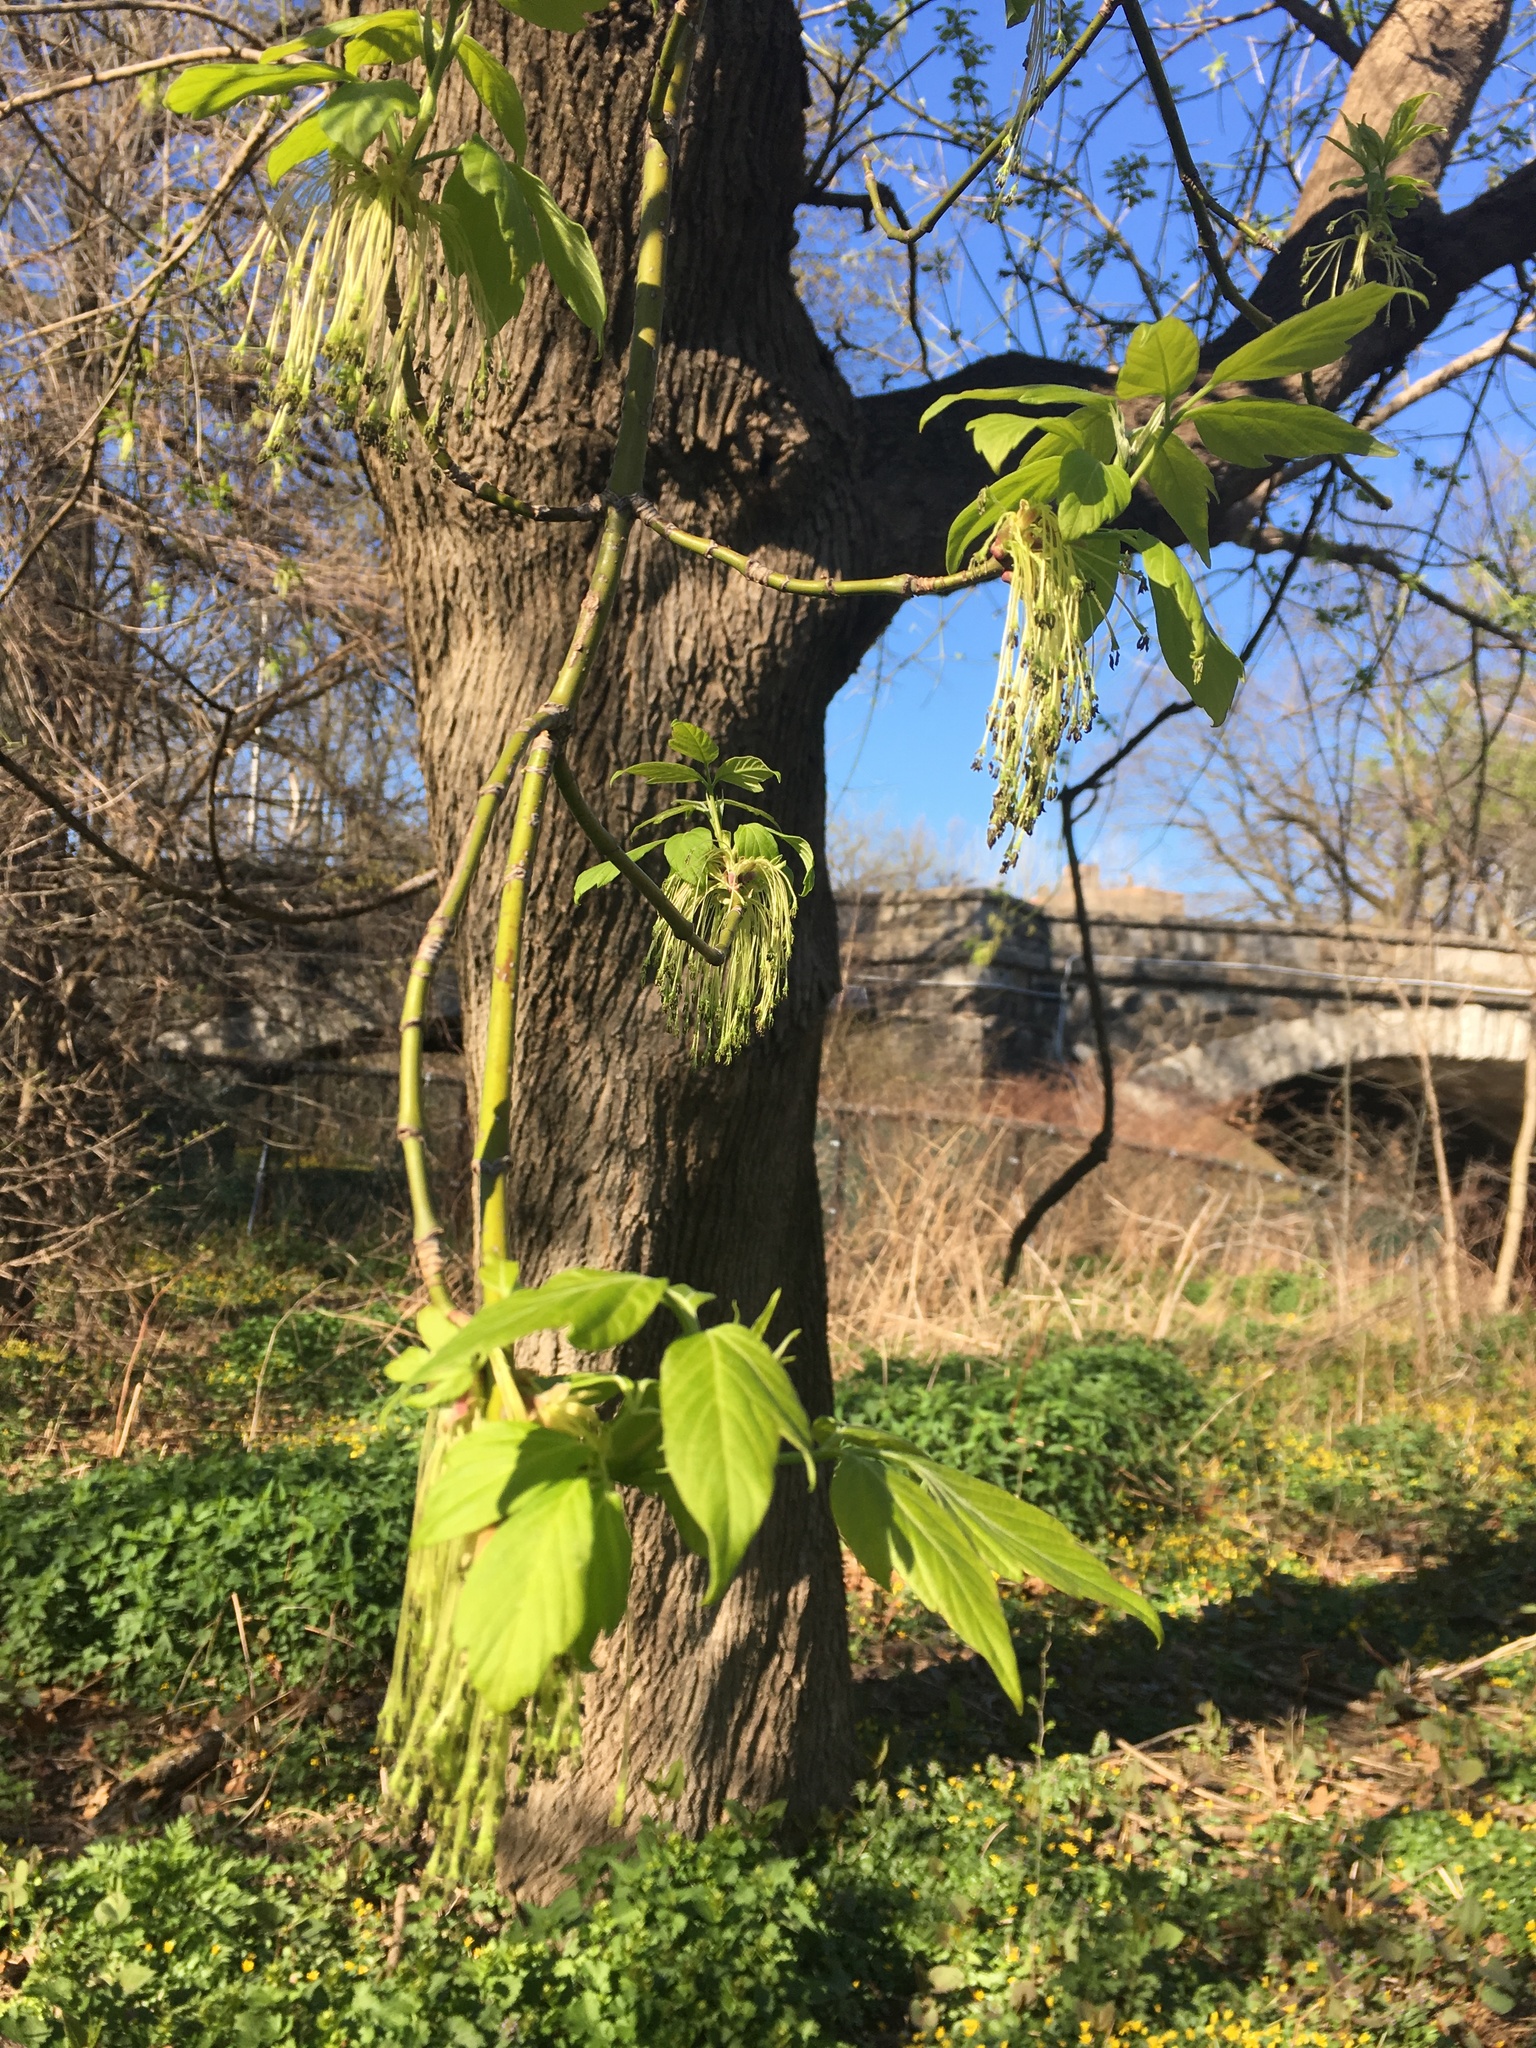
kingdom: Plantae
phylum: Tracheophyta
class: Magnoliopsida
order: Sapindales
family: Sapindaceae
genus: Acer
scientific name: Acer negundo
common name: Ashleaf maple
